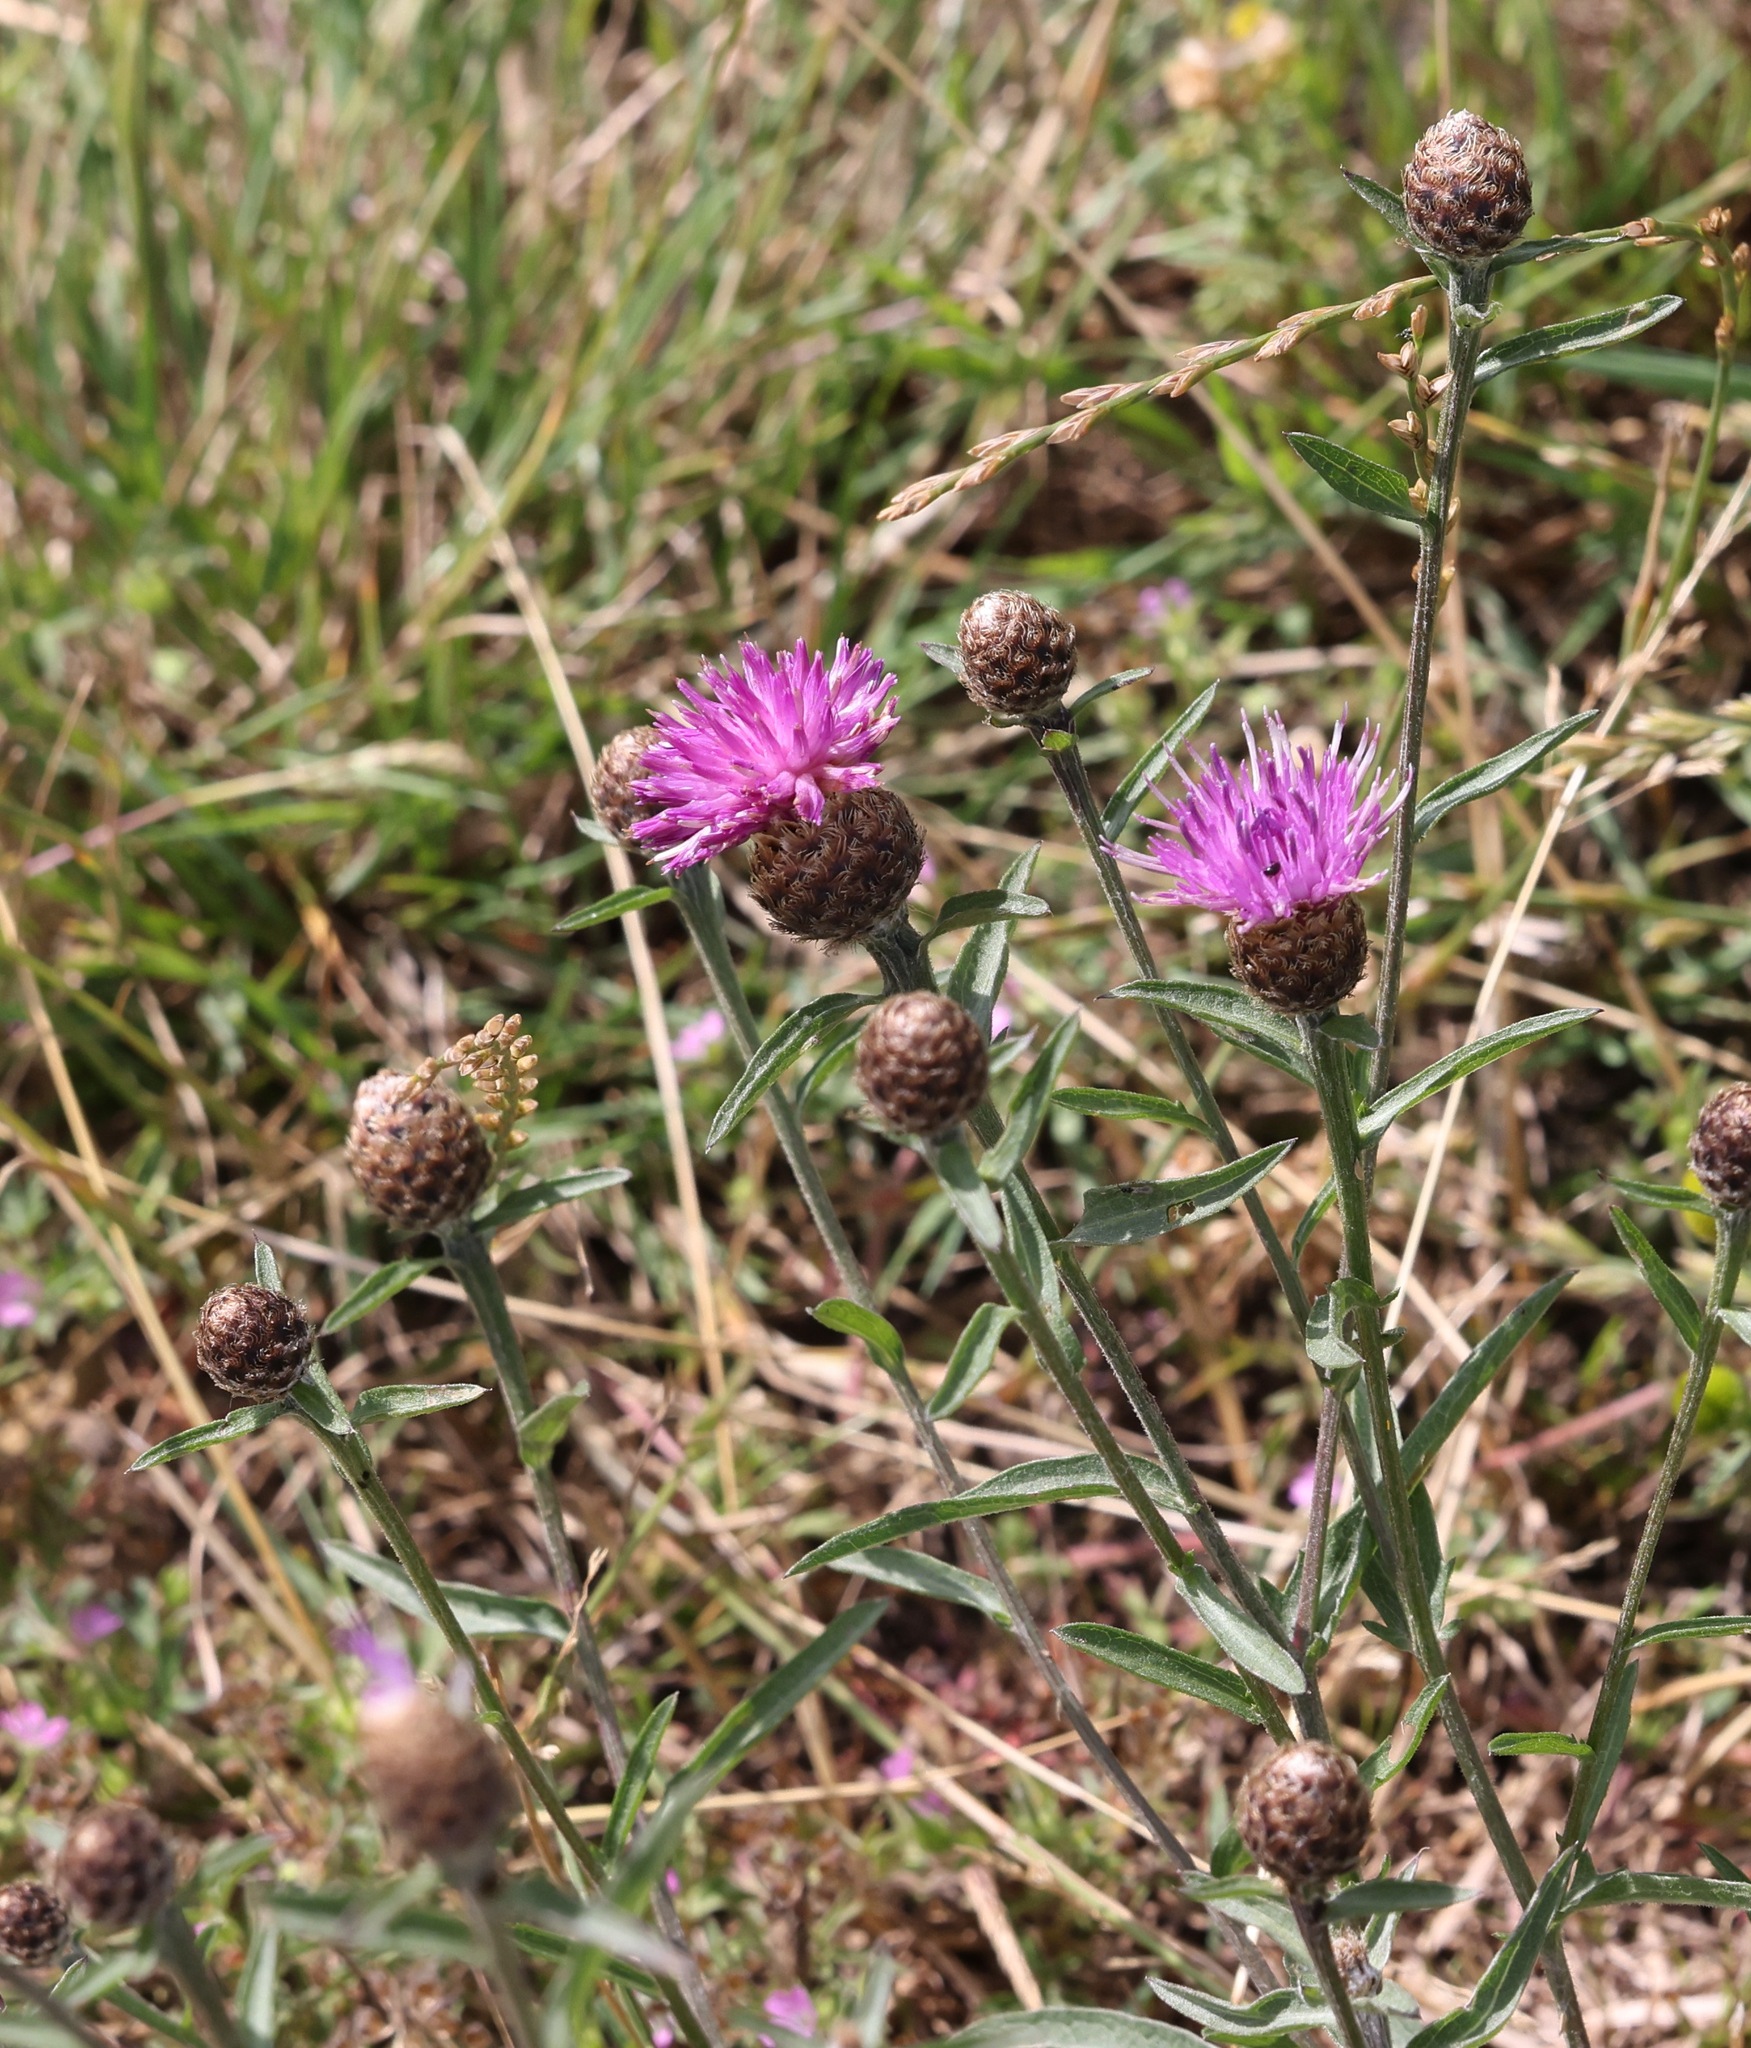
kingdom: Plantae
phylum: Tracheophyta
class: Magnoliopsida
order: Asterales
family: Asteraceae
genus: Centaurea
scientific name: Centaurea nigra
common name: Lesser knapweed
